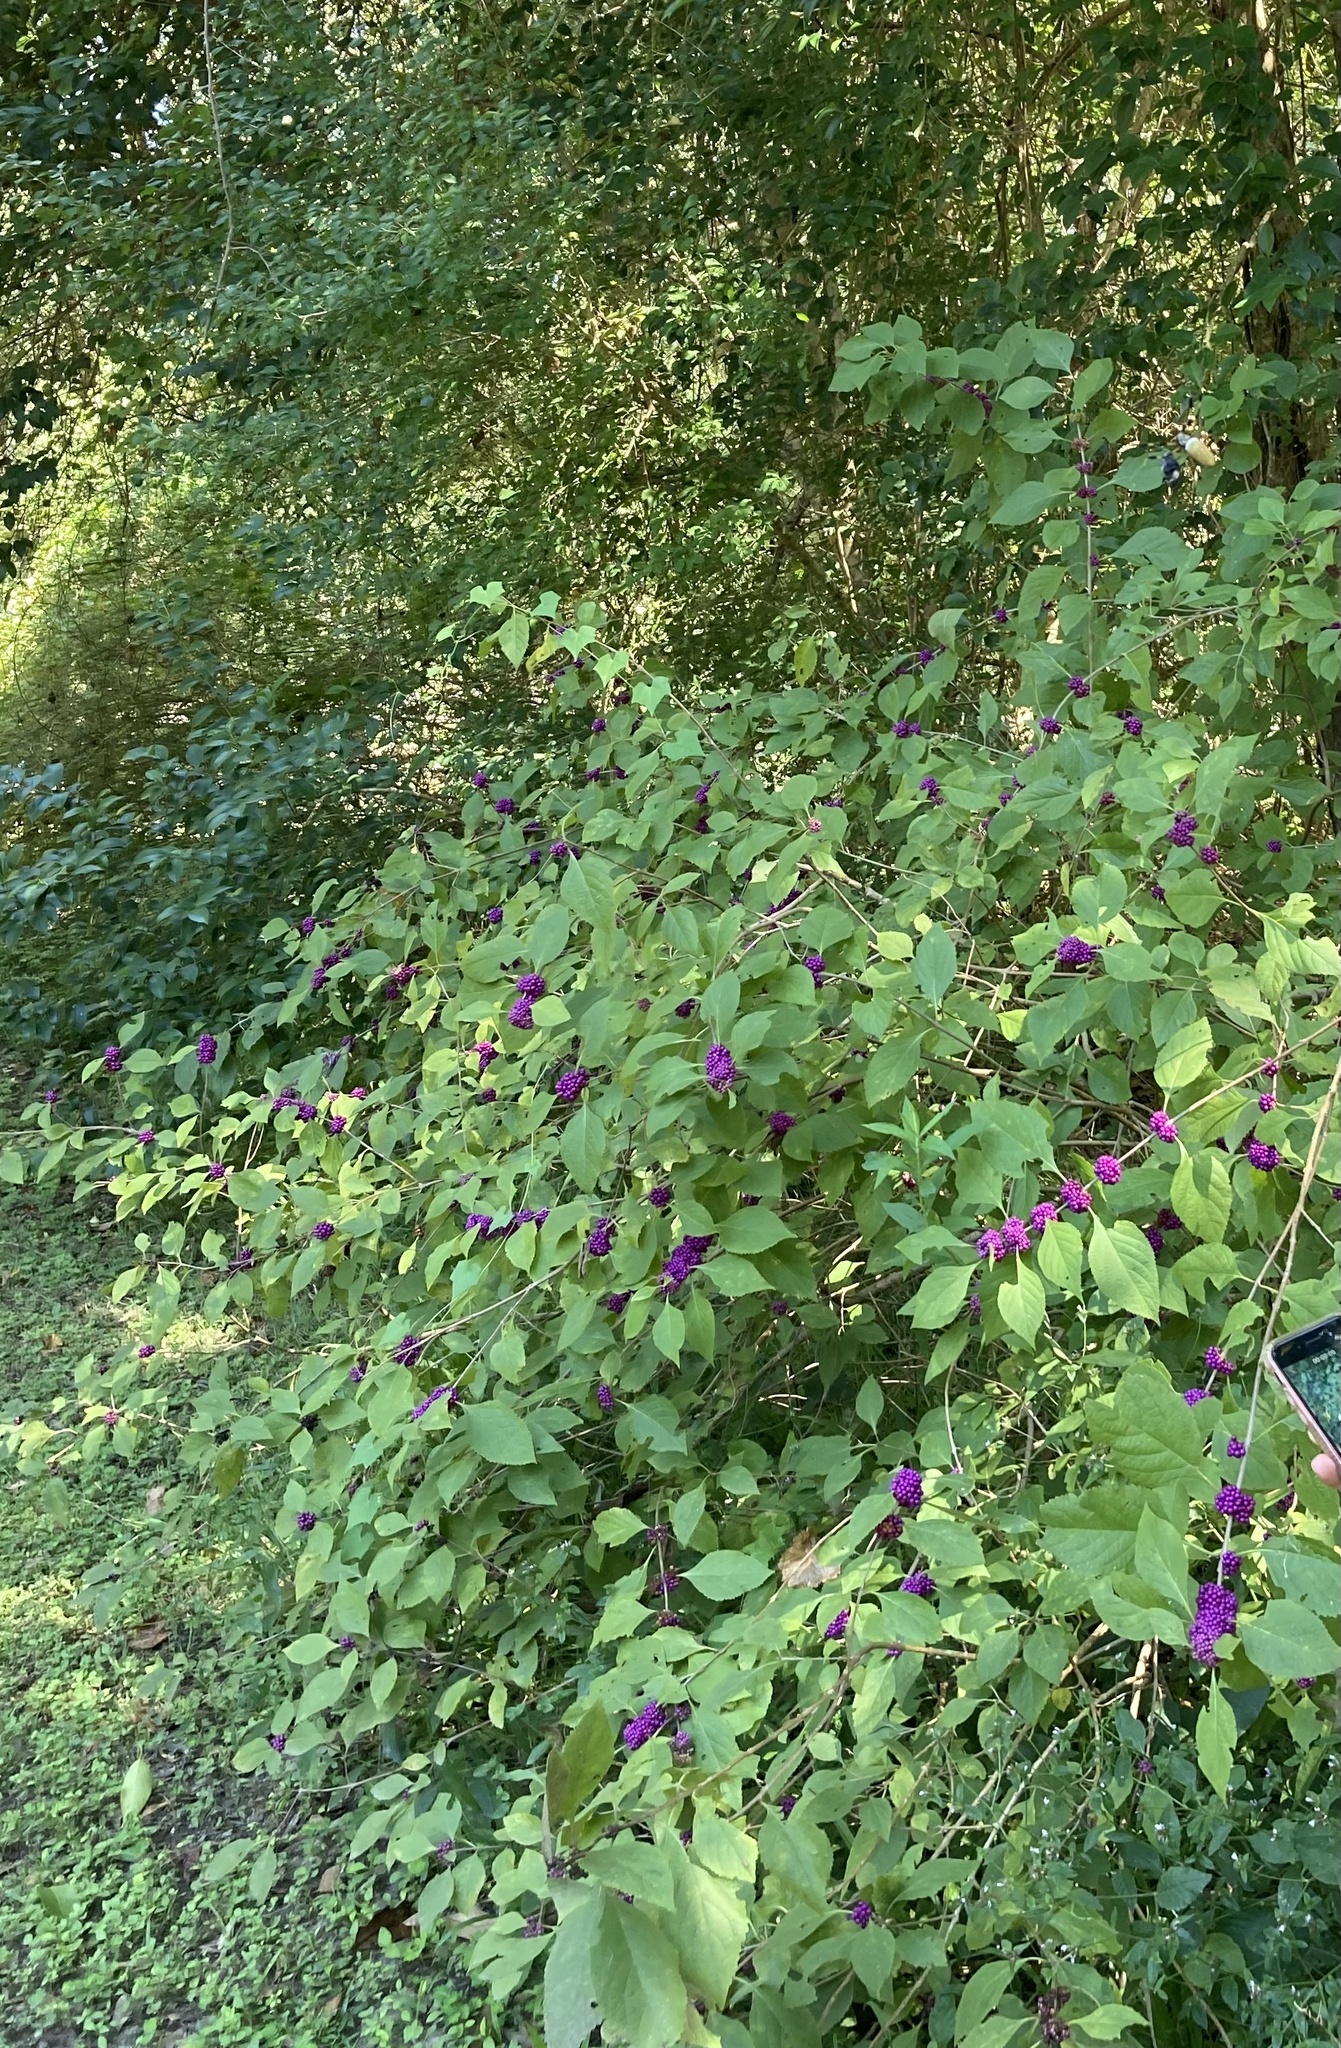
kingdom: Plantae
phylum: Tracheophyta
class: Magnoliopsida
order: Lamiales
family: Lamiaceae
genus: Callicarpa
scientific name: Callicarpa americana
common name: American beautyberry
